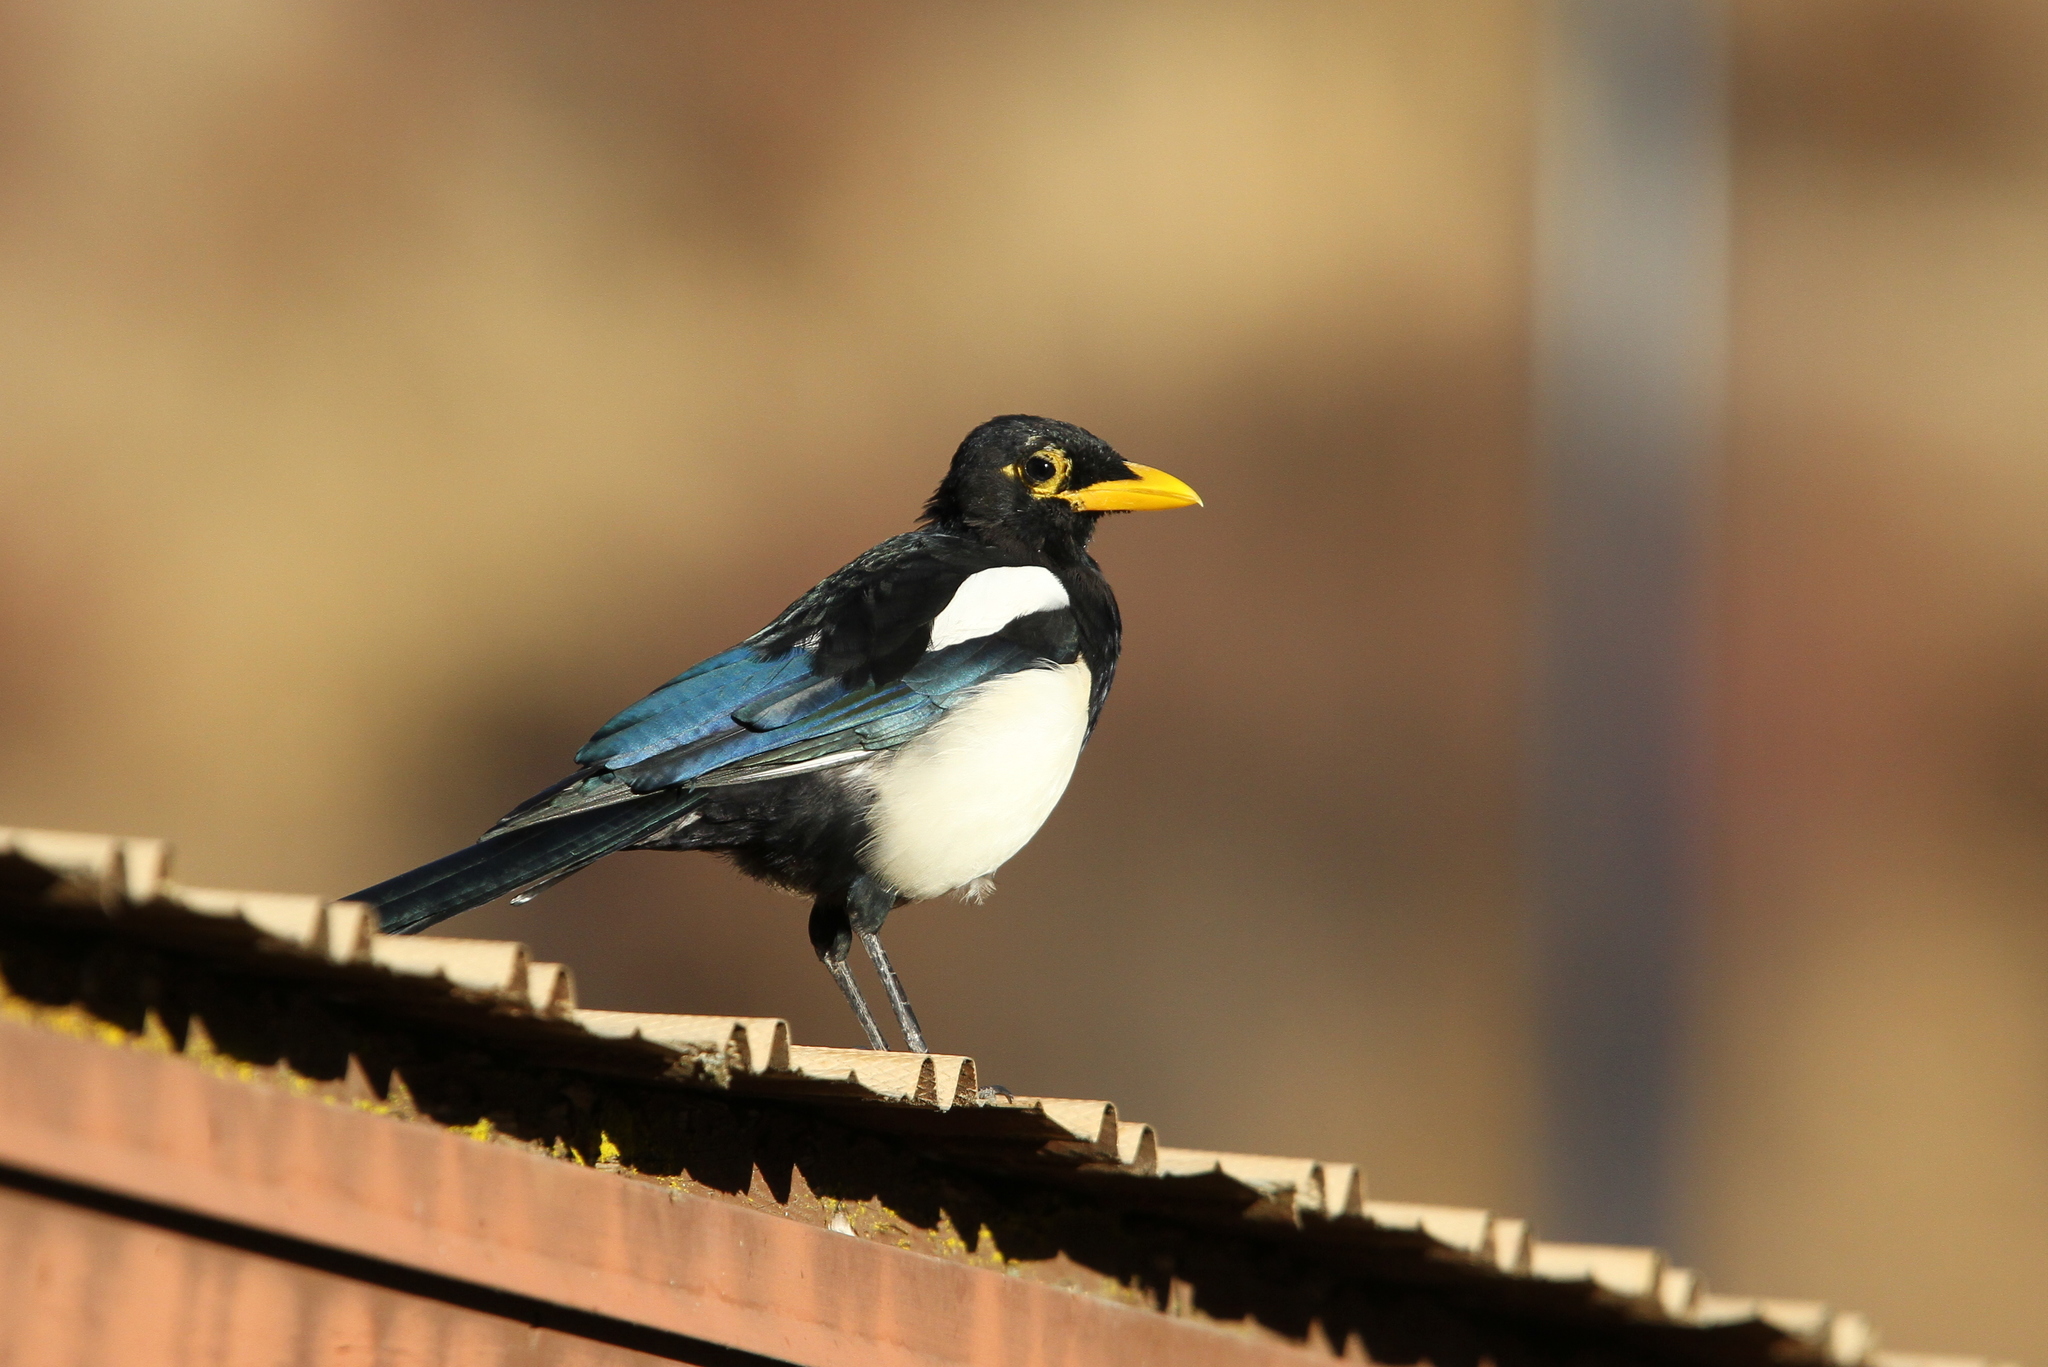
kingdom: Animalia
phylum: Chordata
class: Aves
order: Passeriformes
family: Corvidae
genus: Pica
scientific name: Pica nuttalli
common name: Yellow-billed magpie
